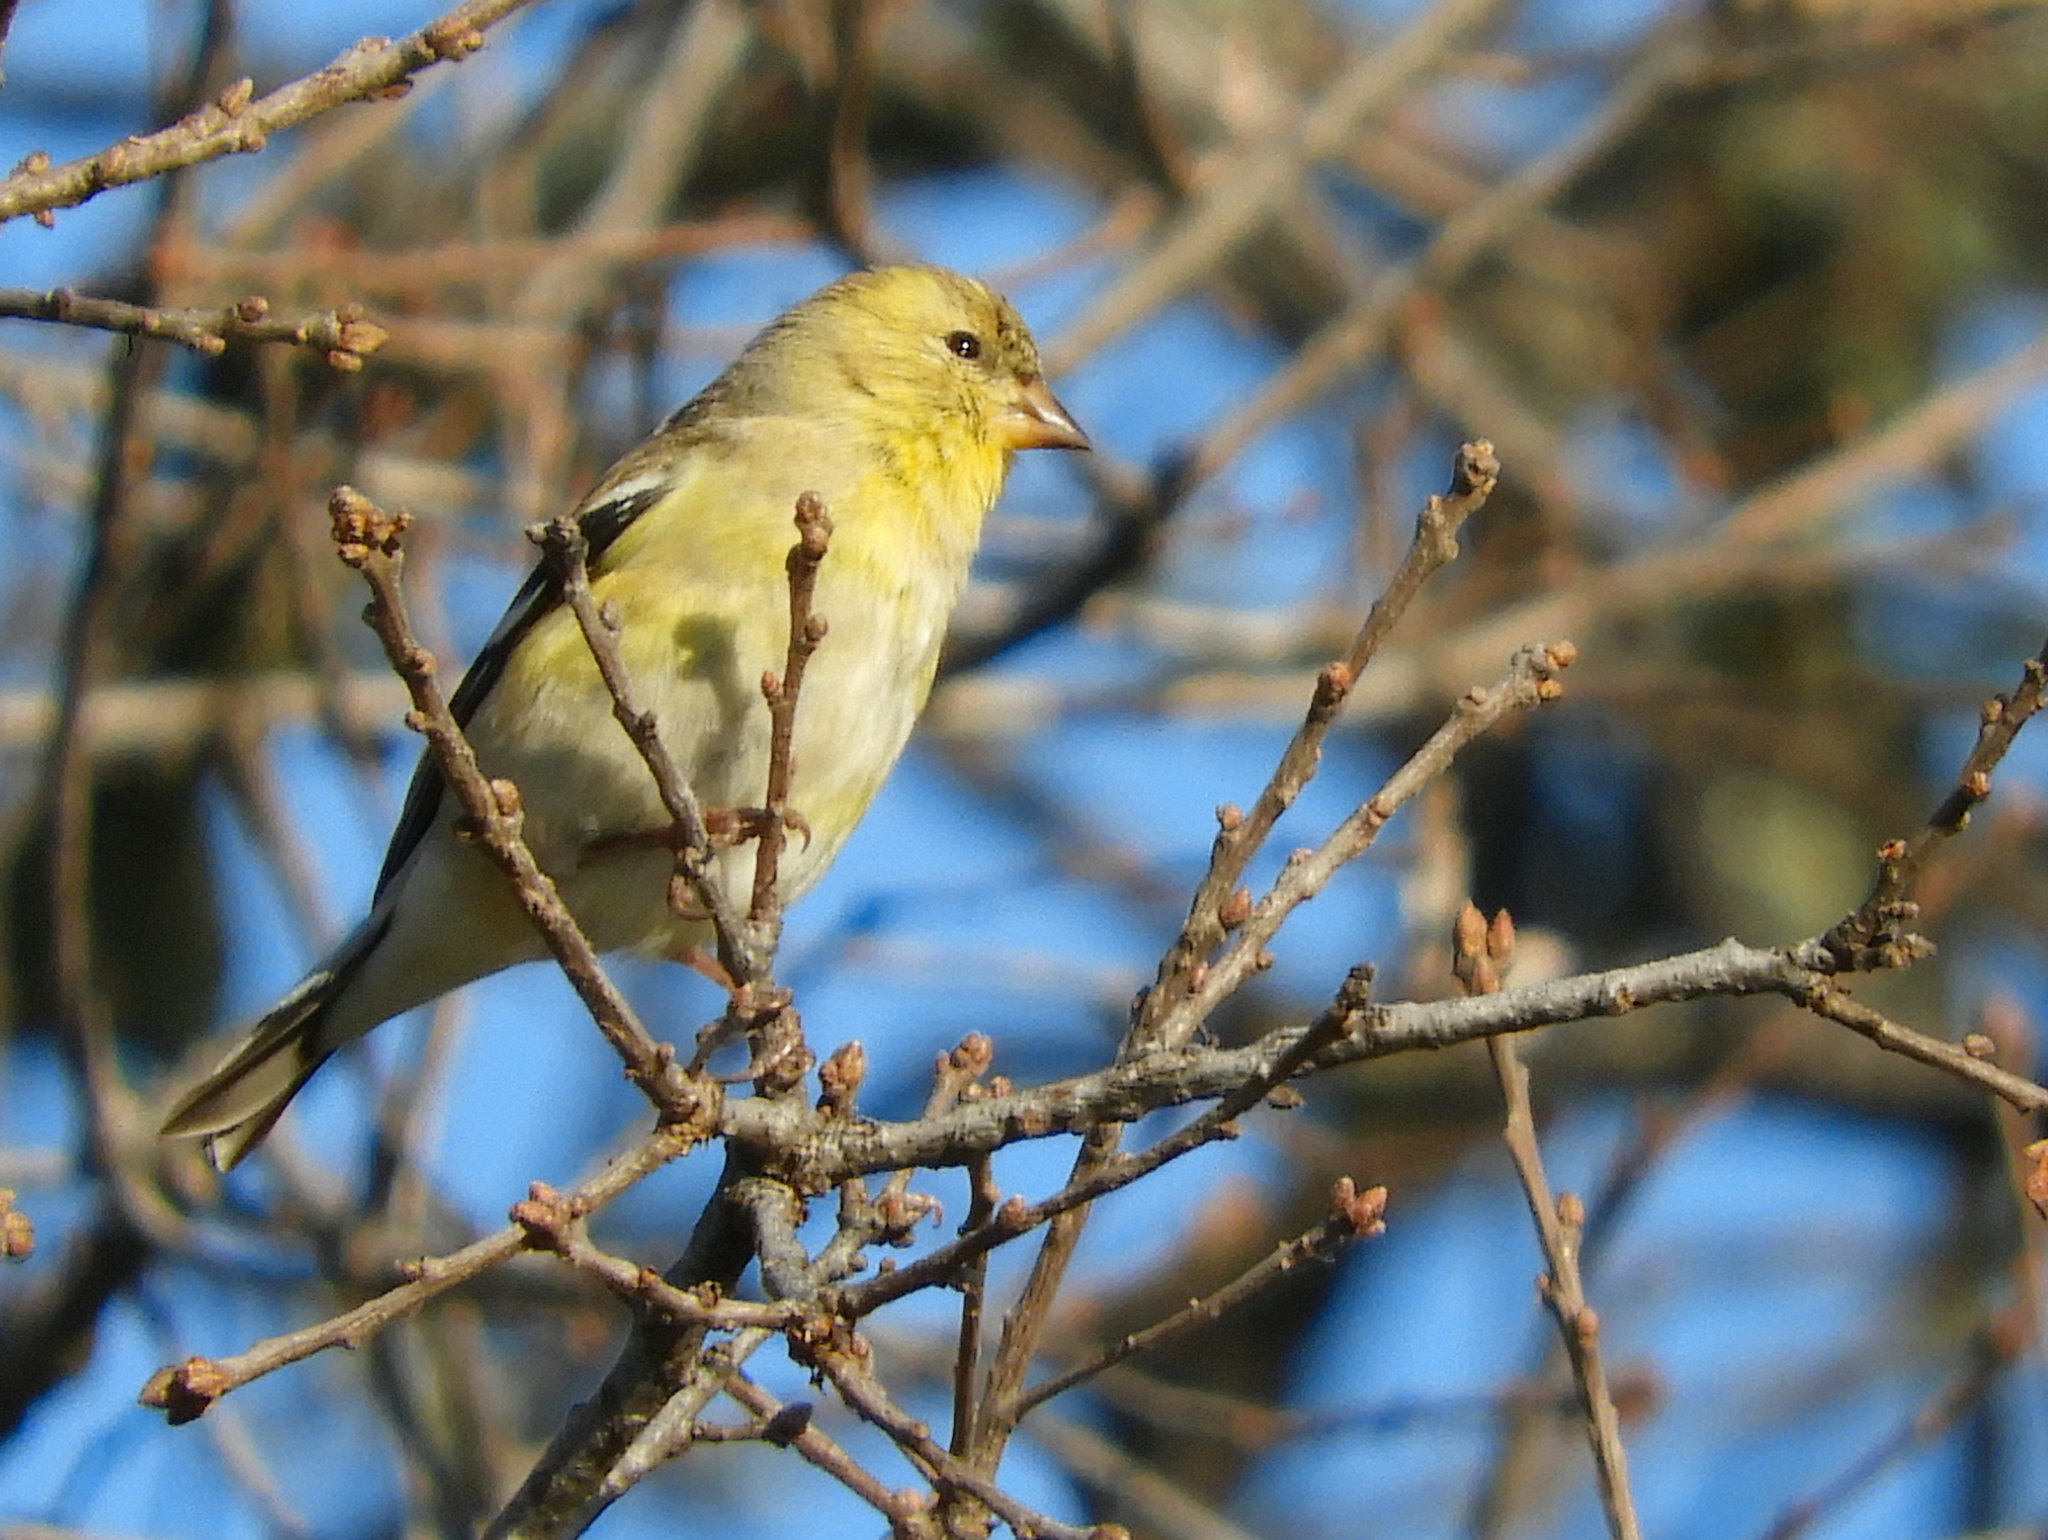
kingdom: Animalia
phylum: Chordata
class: Aves
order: Passeriformes
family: Fringillidae
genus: Spinus
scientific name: Spinus tristis
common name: American goldfinch
